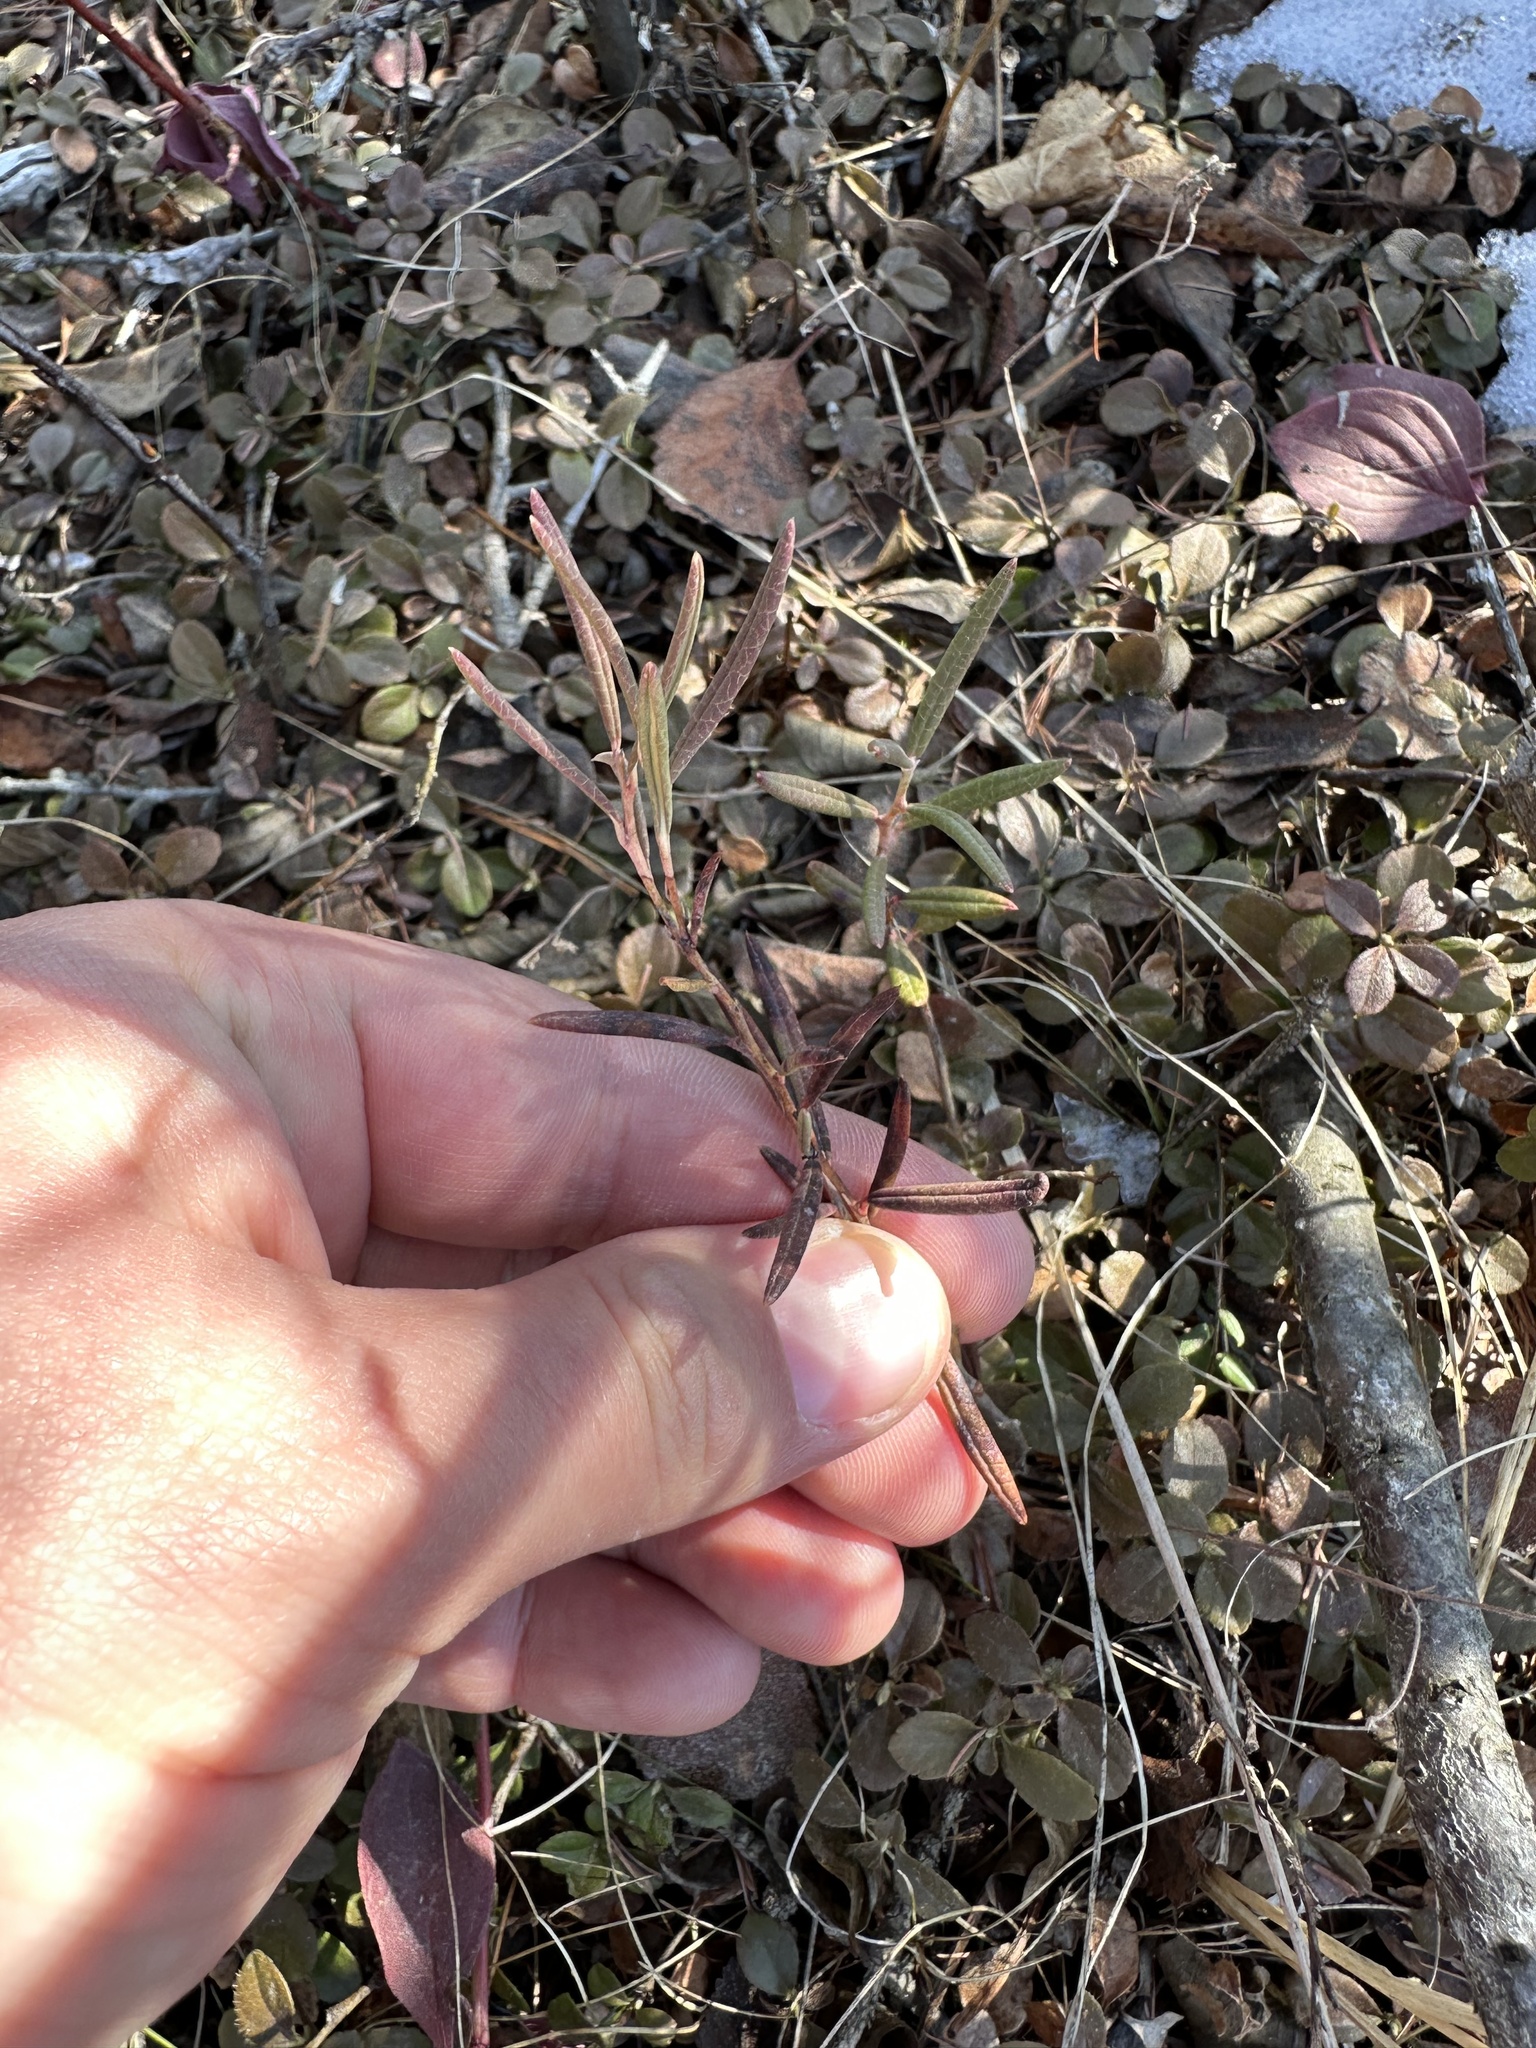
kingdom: Plantae
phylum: Tracheophyta
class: Magnoliopsida
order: Ericales
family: Ericaceae
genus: Andromeda
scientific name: Andromeda polifolia
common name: Bog-rosemary
